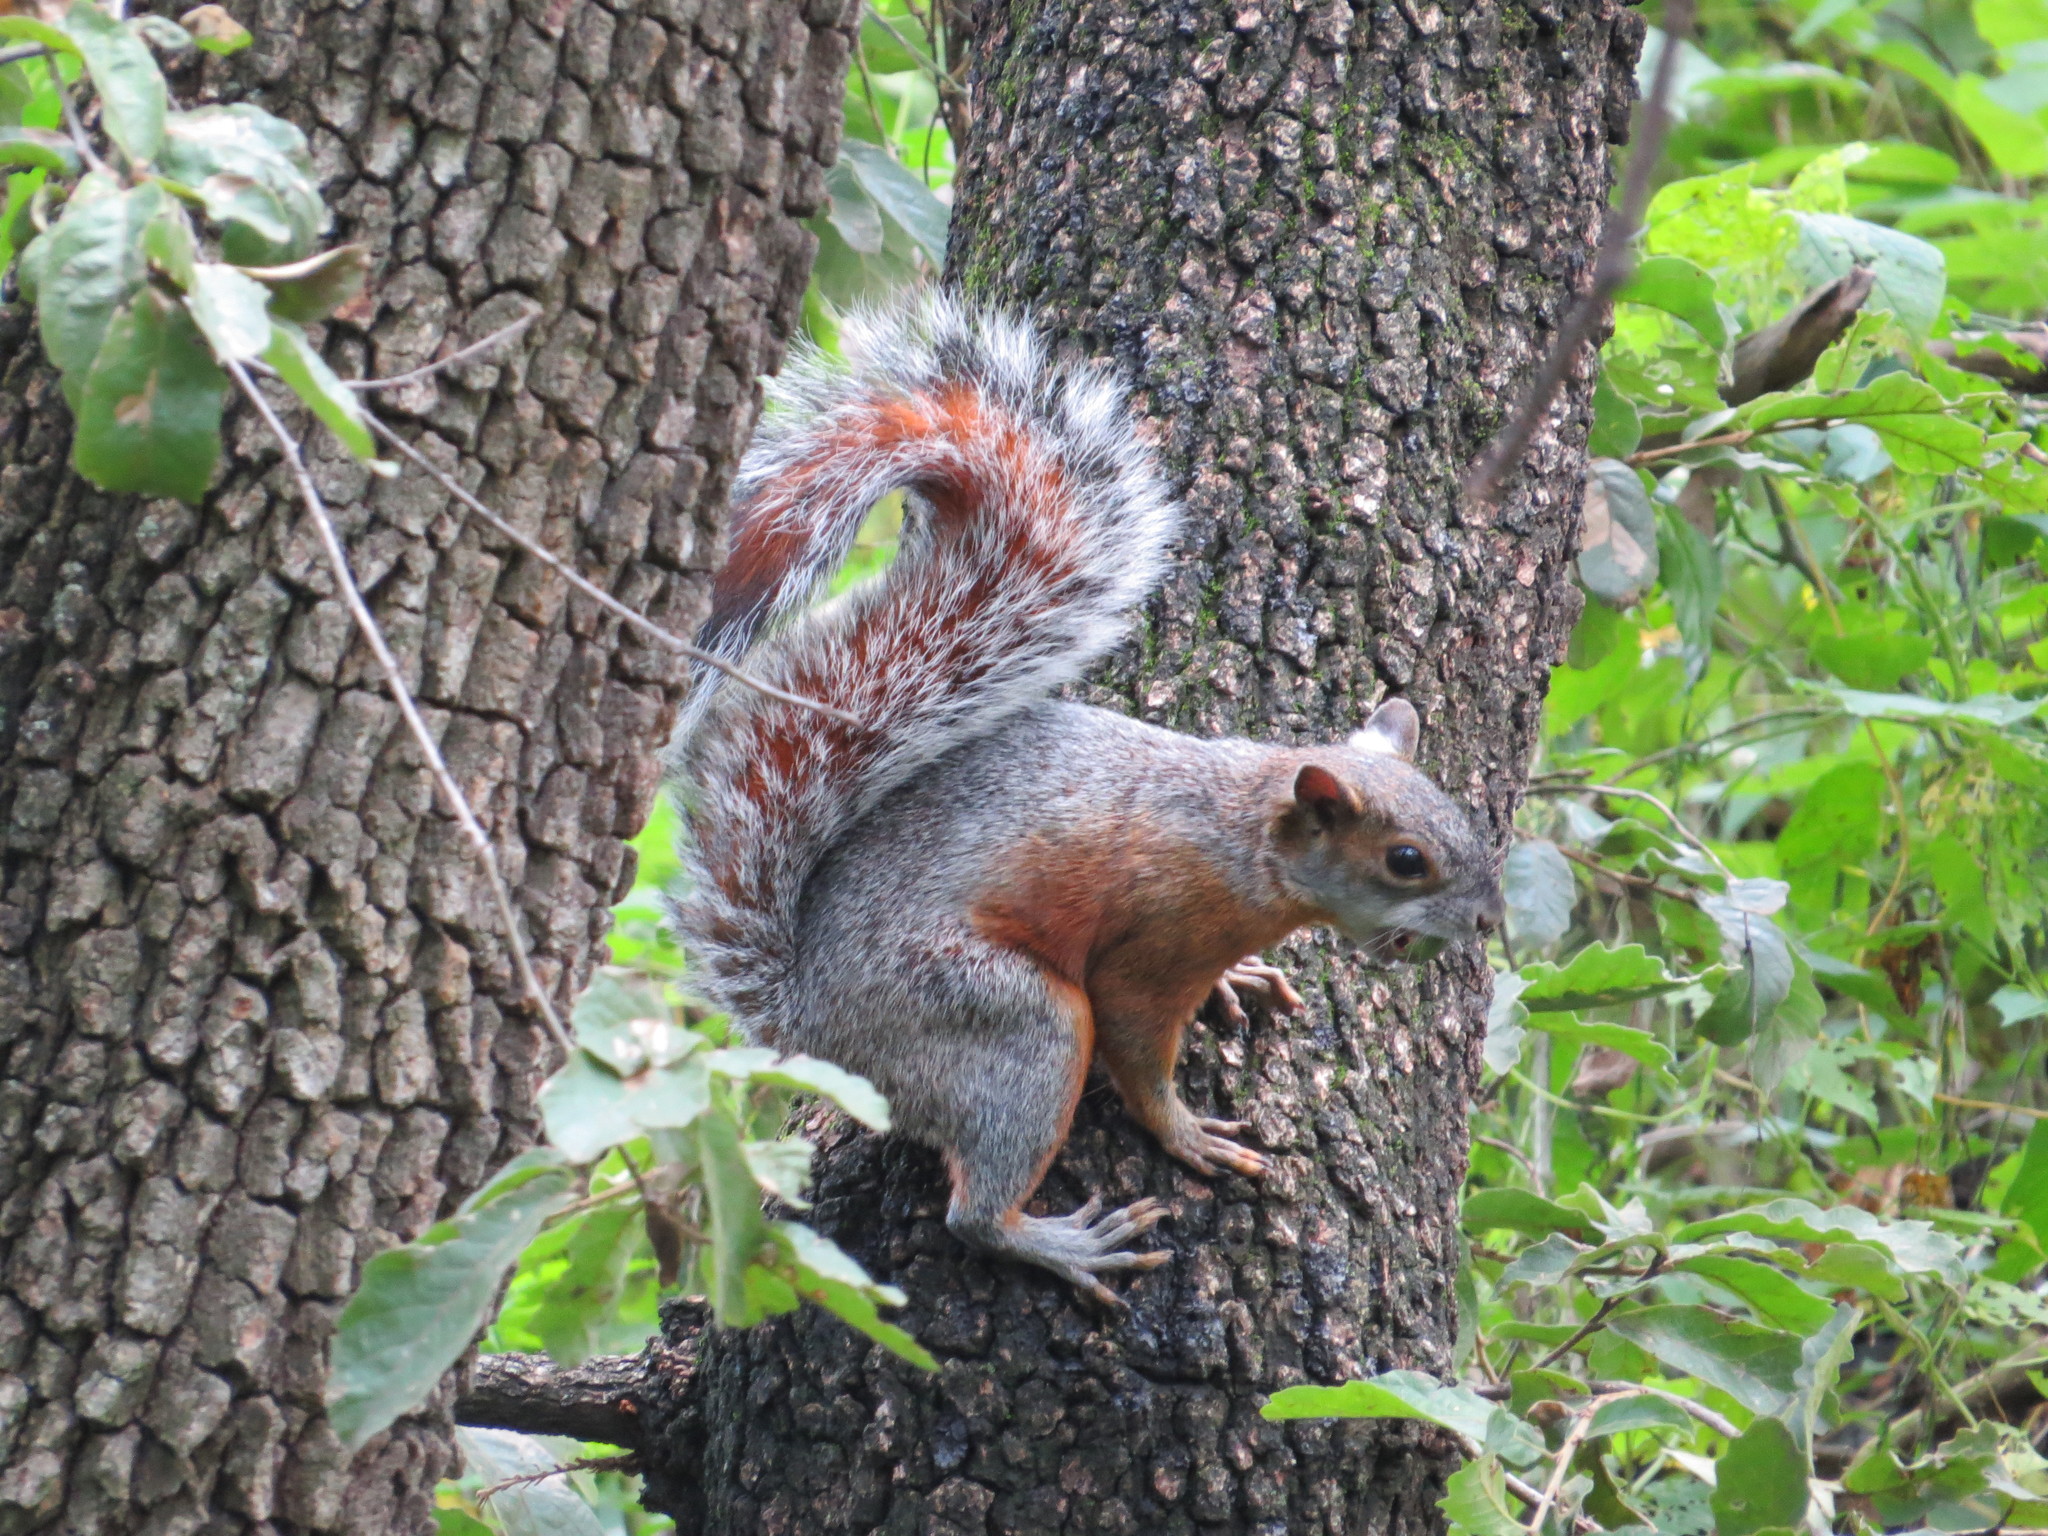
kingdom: Animalia
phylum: Chordata
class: Mammalia
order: Rodentia
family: Sciuridae
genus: Sciurus
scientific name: Sciurus aureogaster
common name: Red-bellied squirrel
